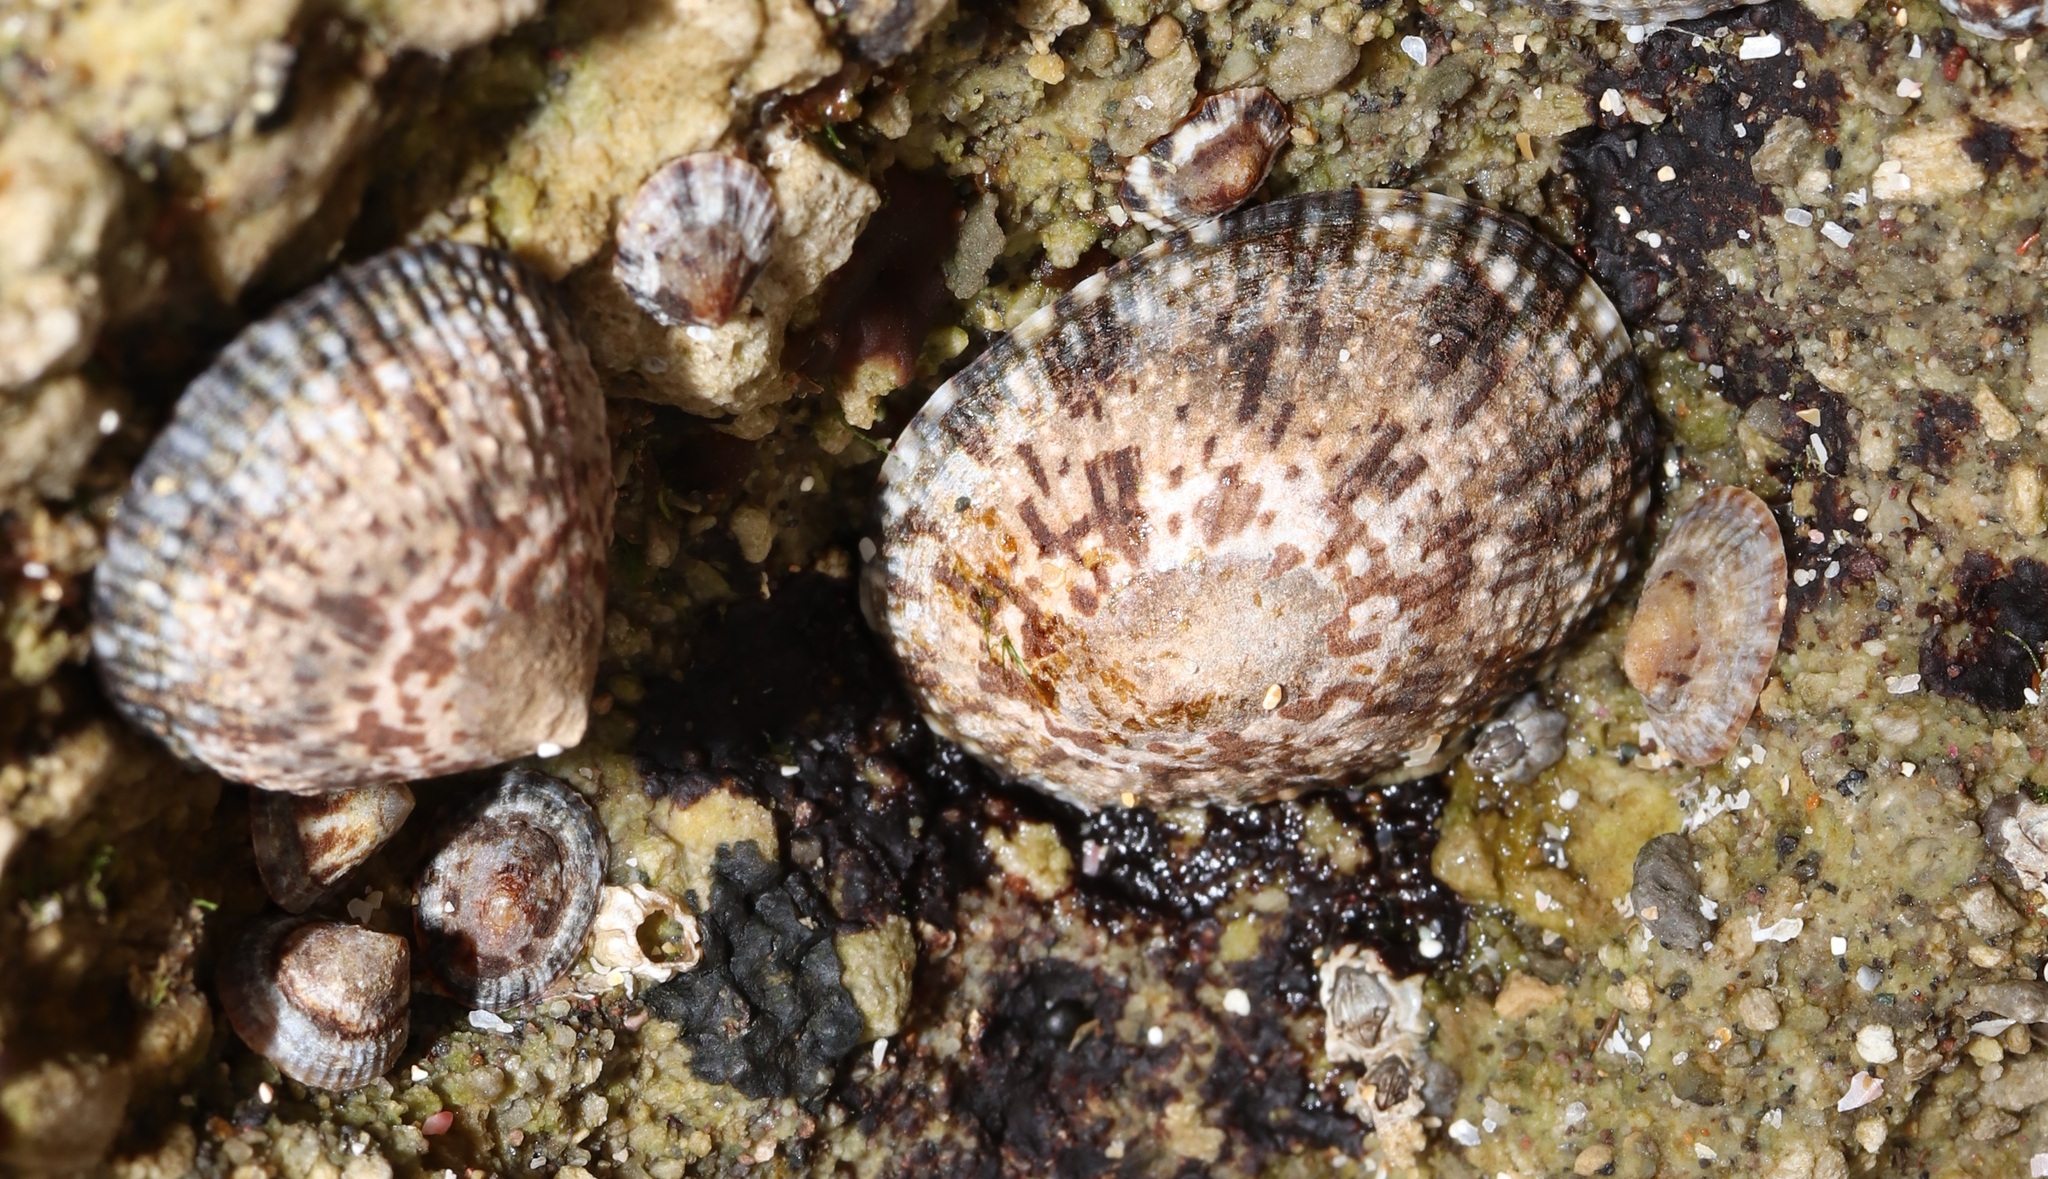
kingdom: Animalia
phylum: Mollusca
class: Gastropoda
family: Nacellidae
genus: Cellana
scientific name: Cellana grata
